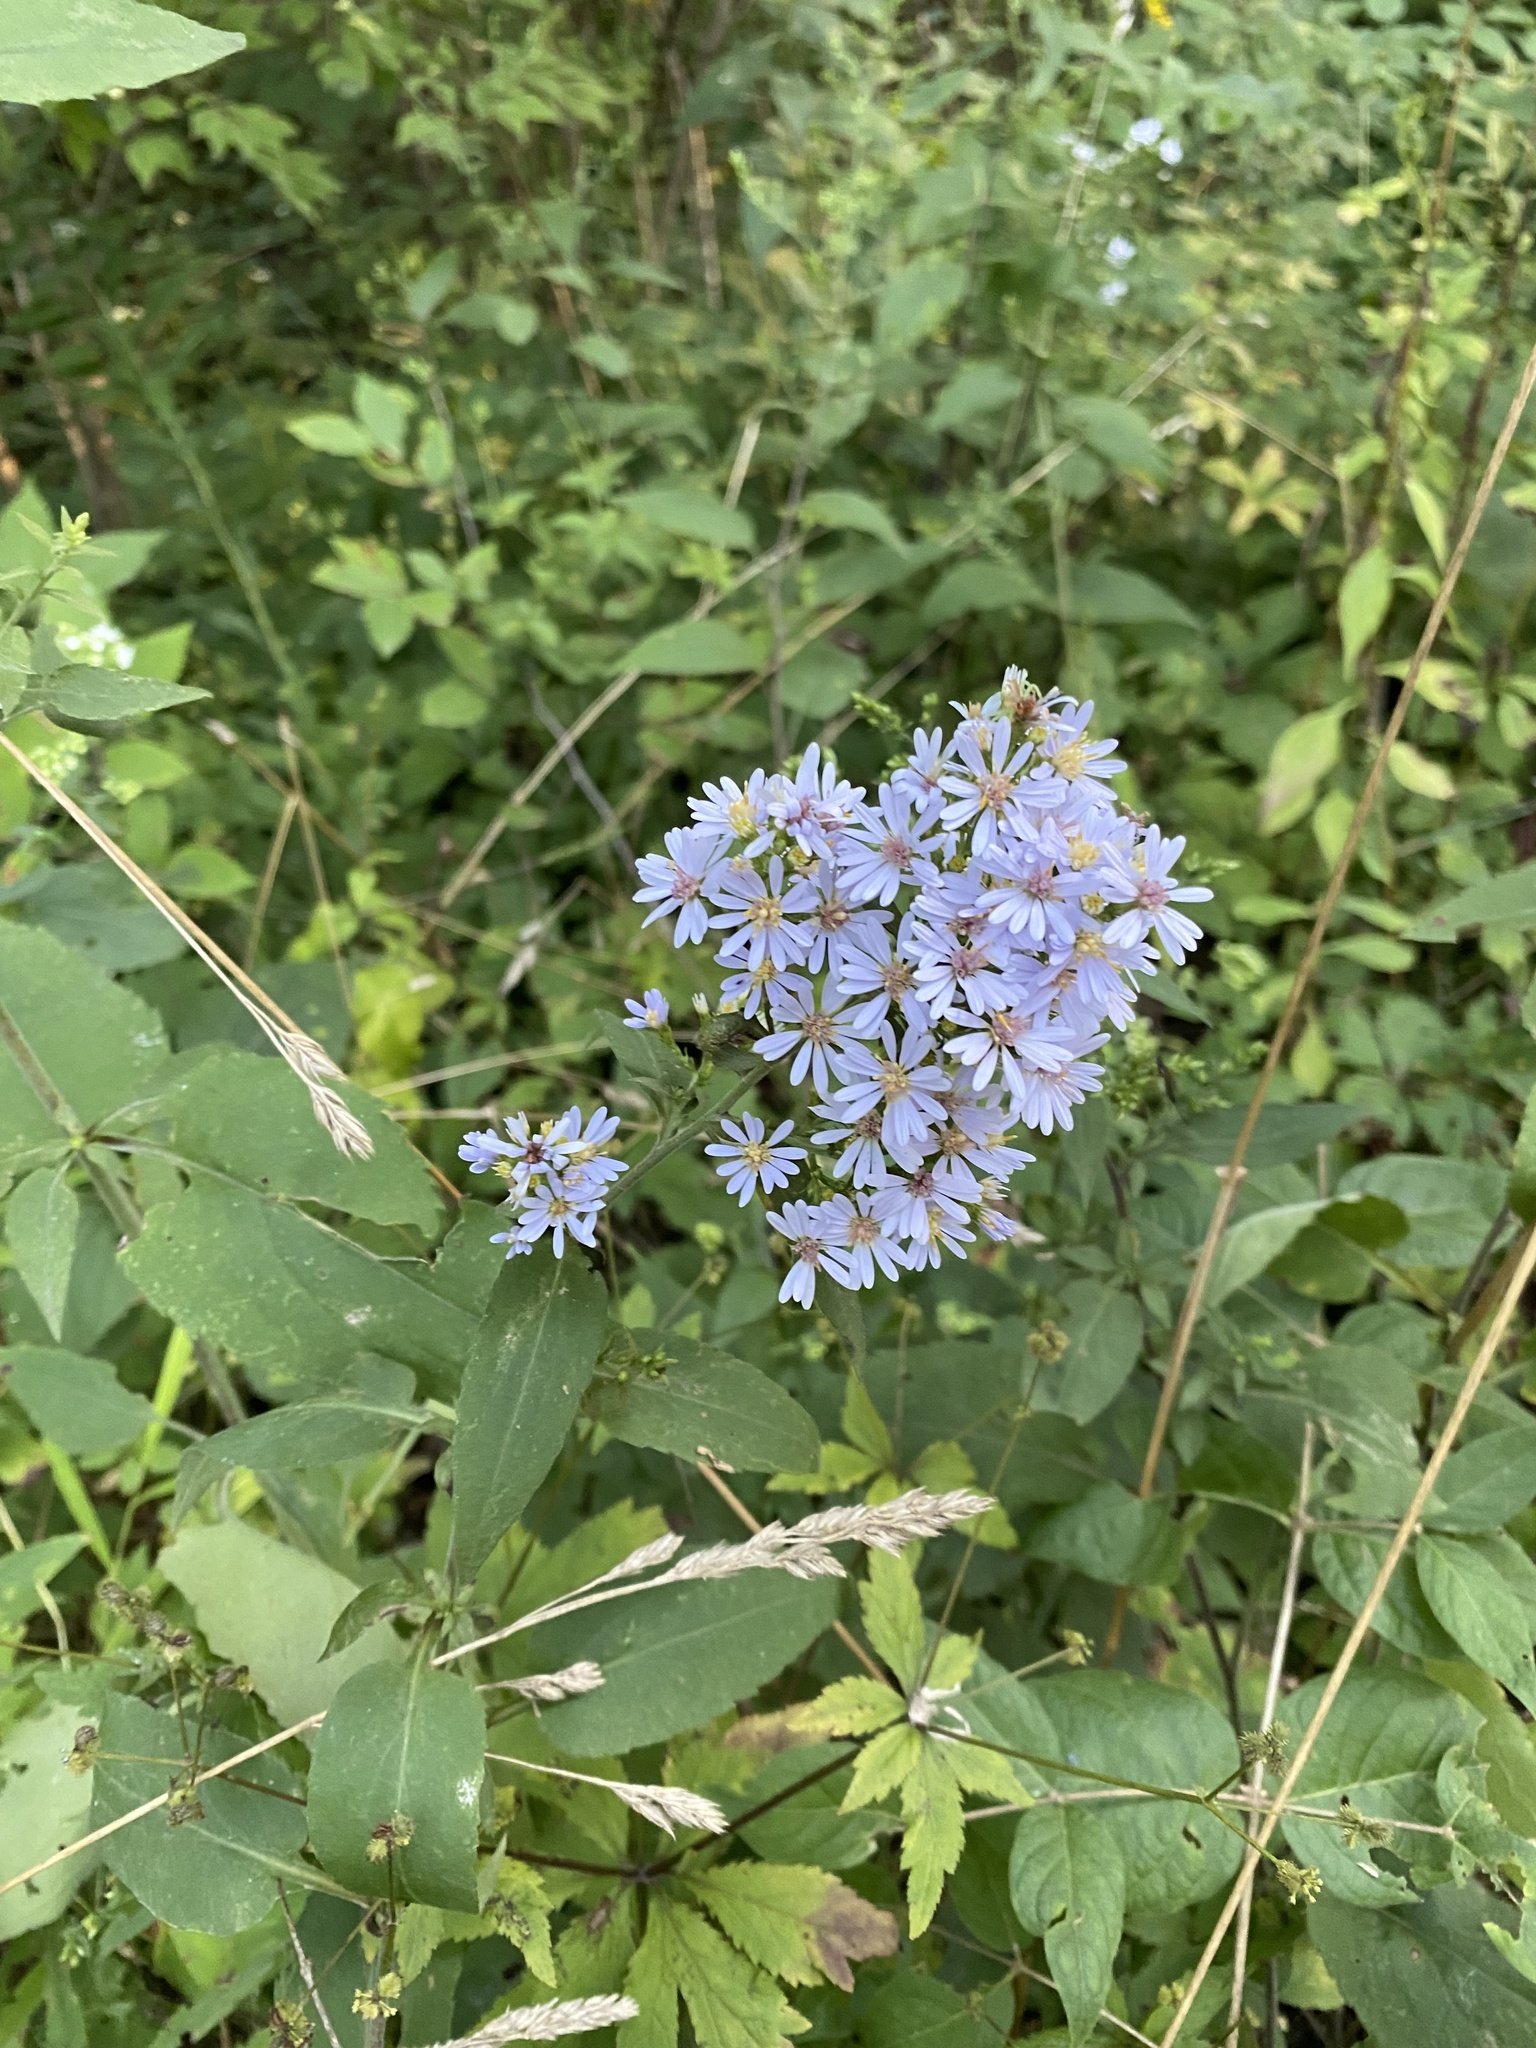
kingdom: Plantae
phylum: Tracheophyta
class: Magnoliopsida
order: Asterales
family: Asteraceae
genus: Symphyotrichum
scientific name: Symphyotrichum shortii
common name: Short's aster
